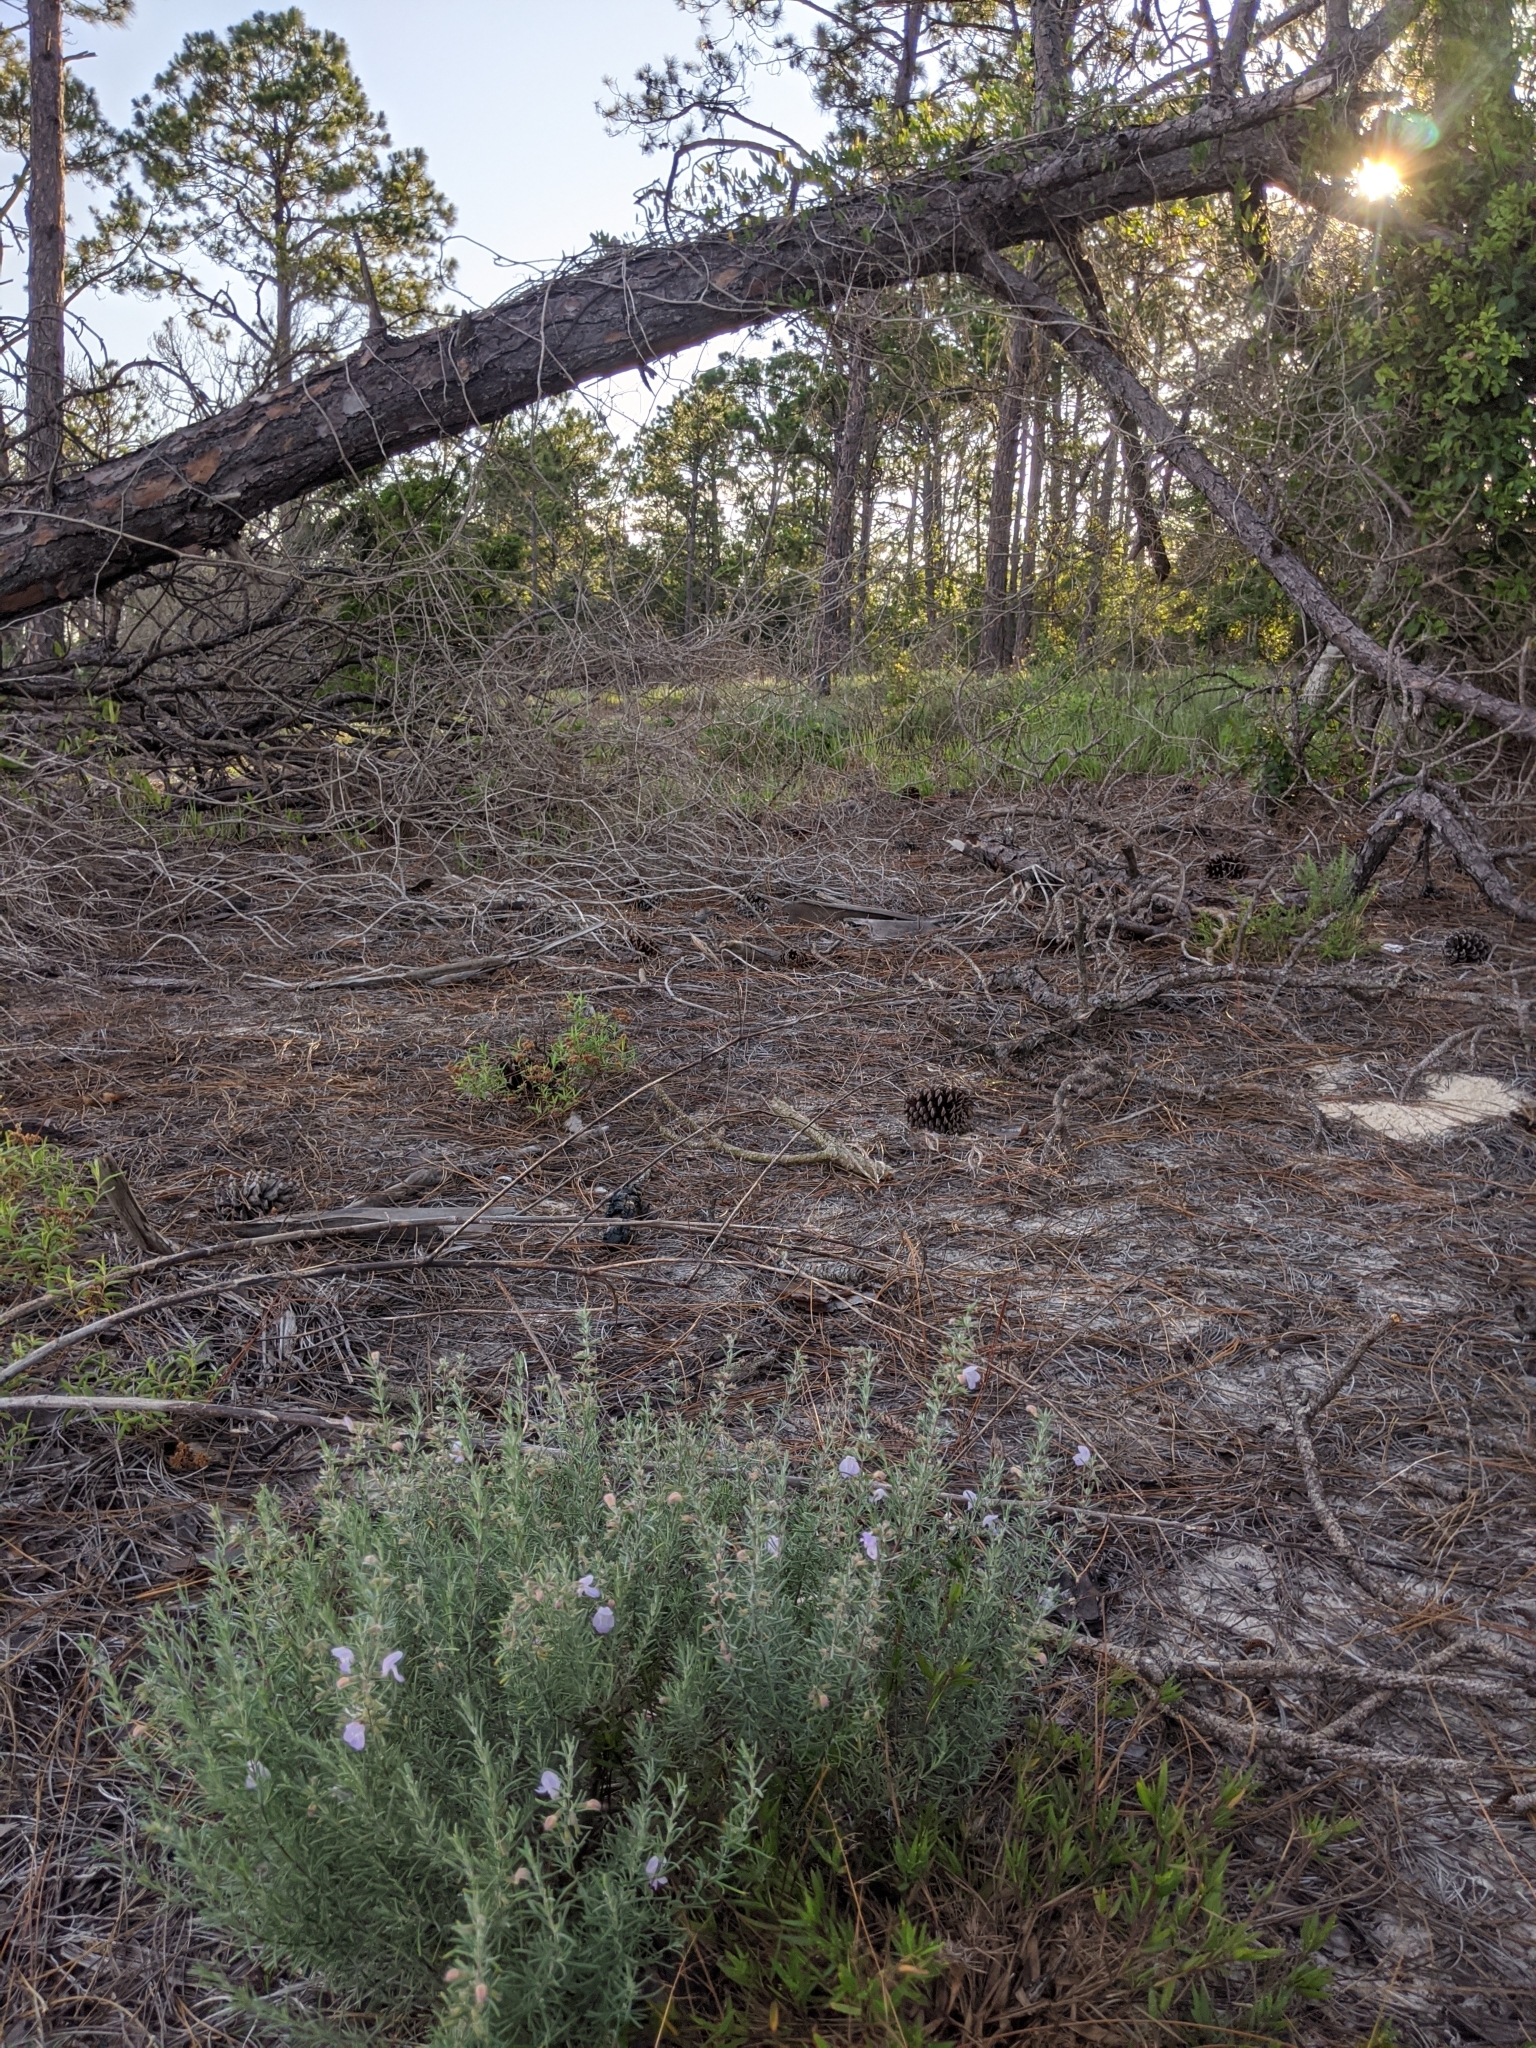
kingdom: Plantae
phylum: Tracheophyta
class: Magnoliopsida
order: Lamiales
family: Lamiaceae
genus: Conradina
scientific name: Conradina canescens
